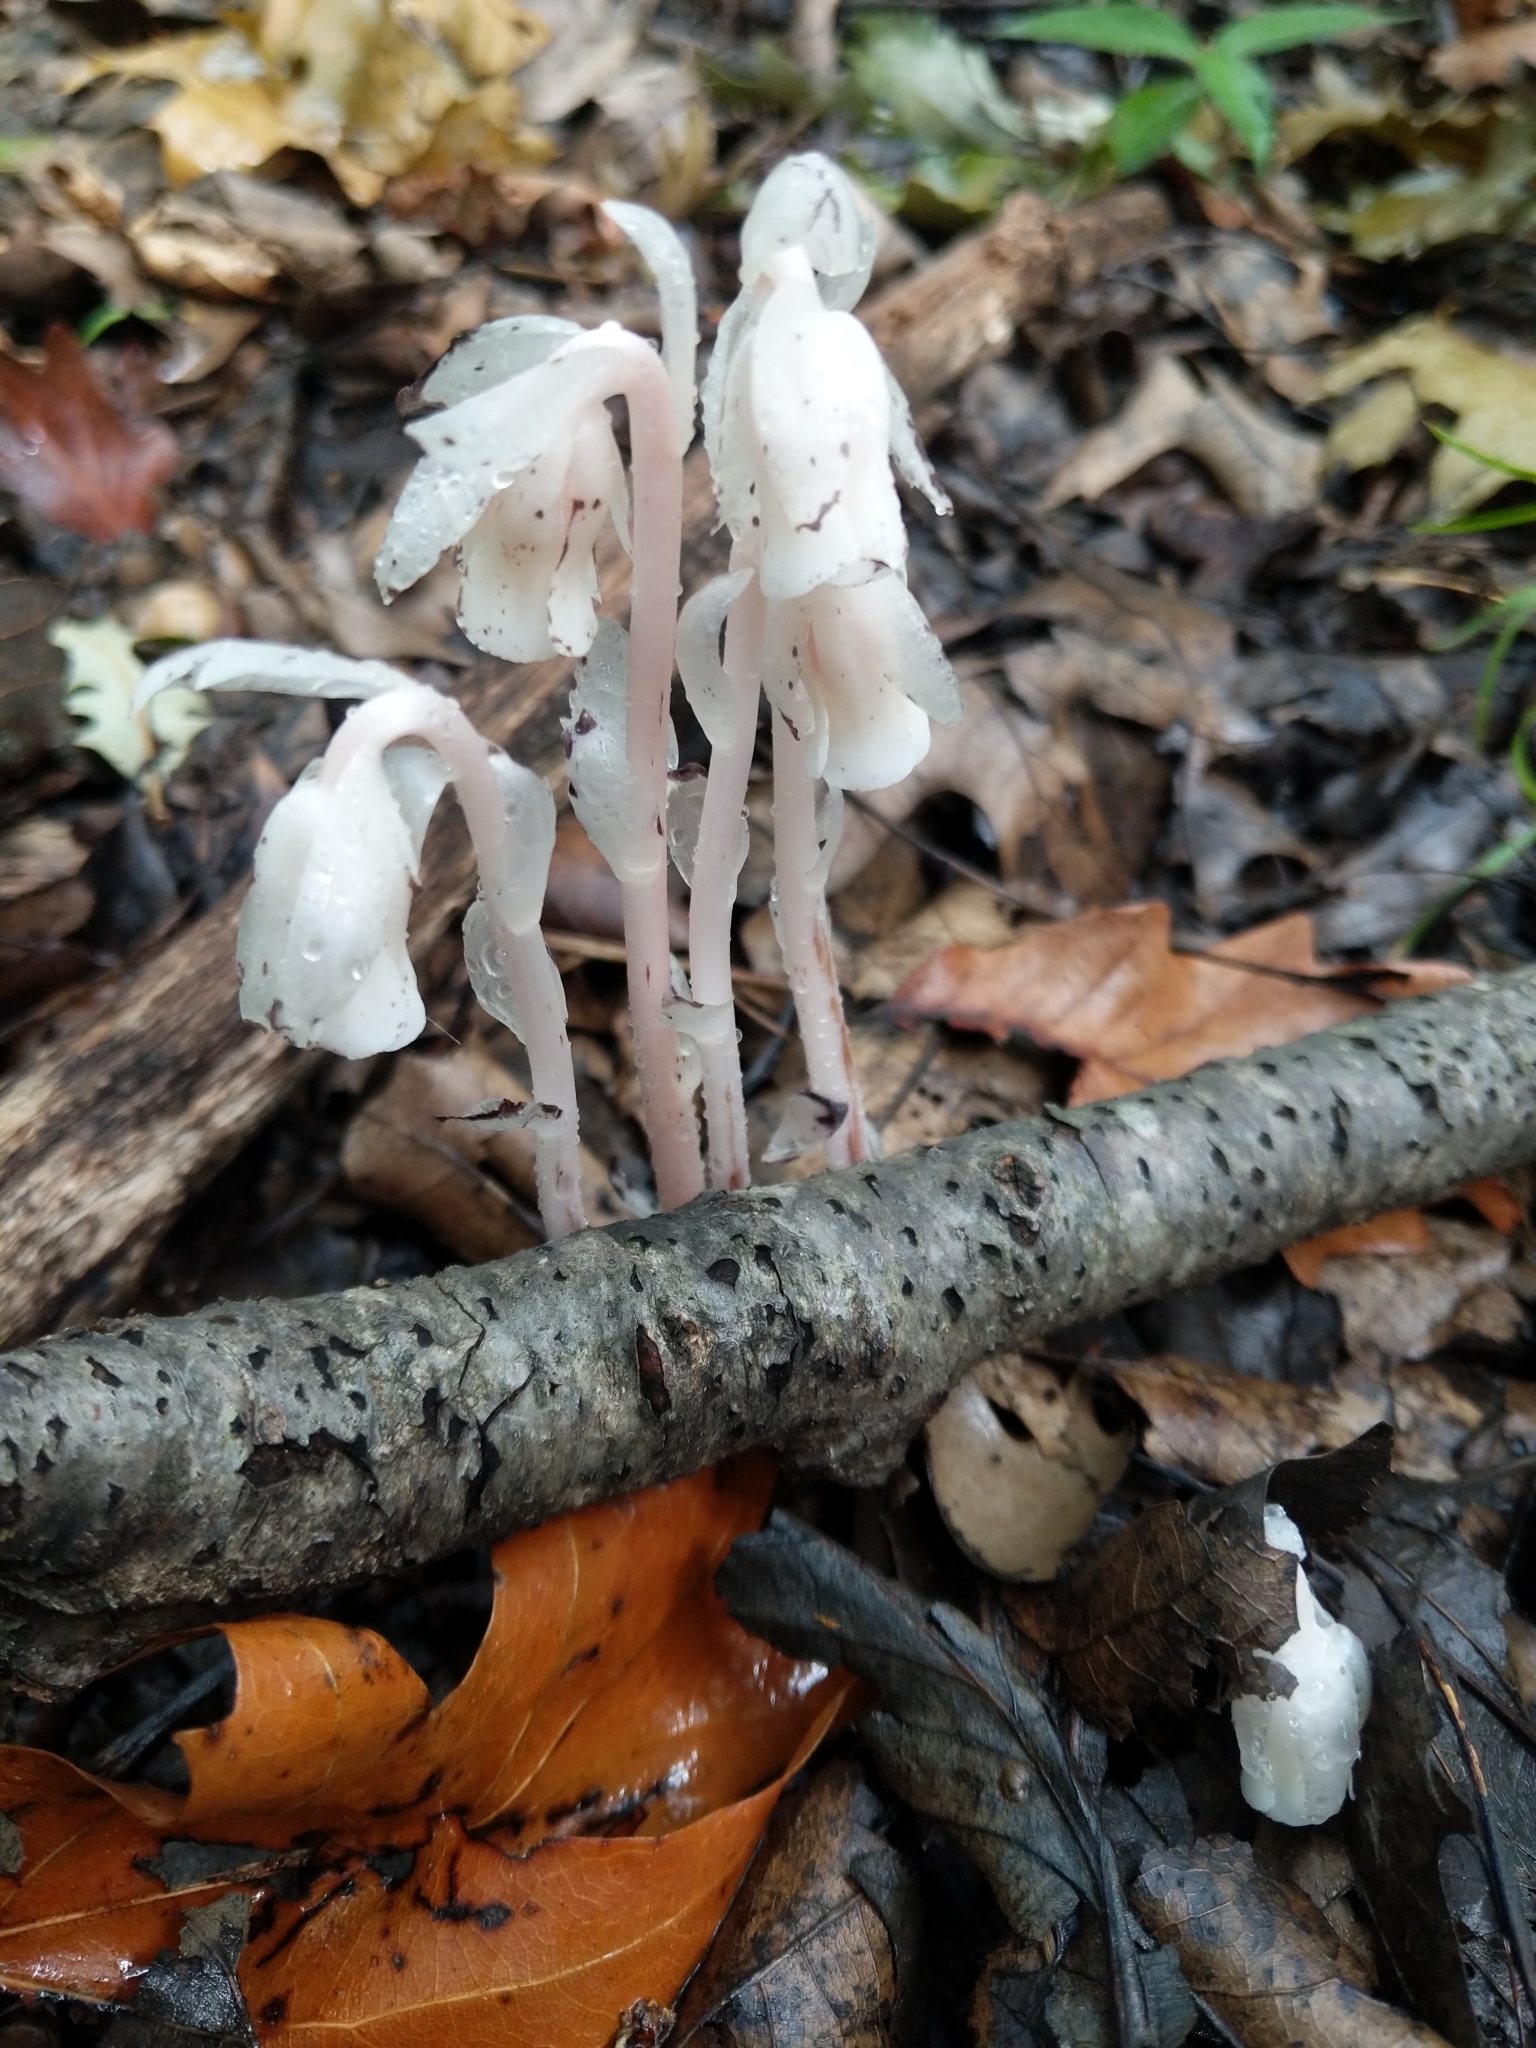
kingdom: Plantae
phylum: Tracheophyta
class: Magnoliopsida
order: Ericales
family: Ericaceae
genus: Monotropa
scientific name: Monotropa uniflora
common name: Convulsion root
